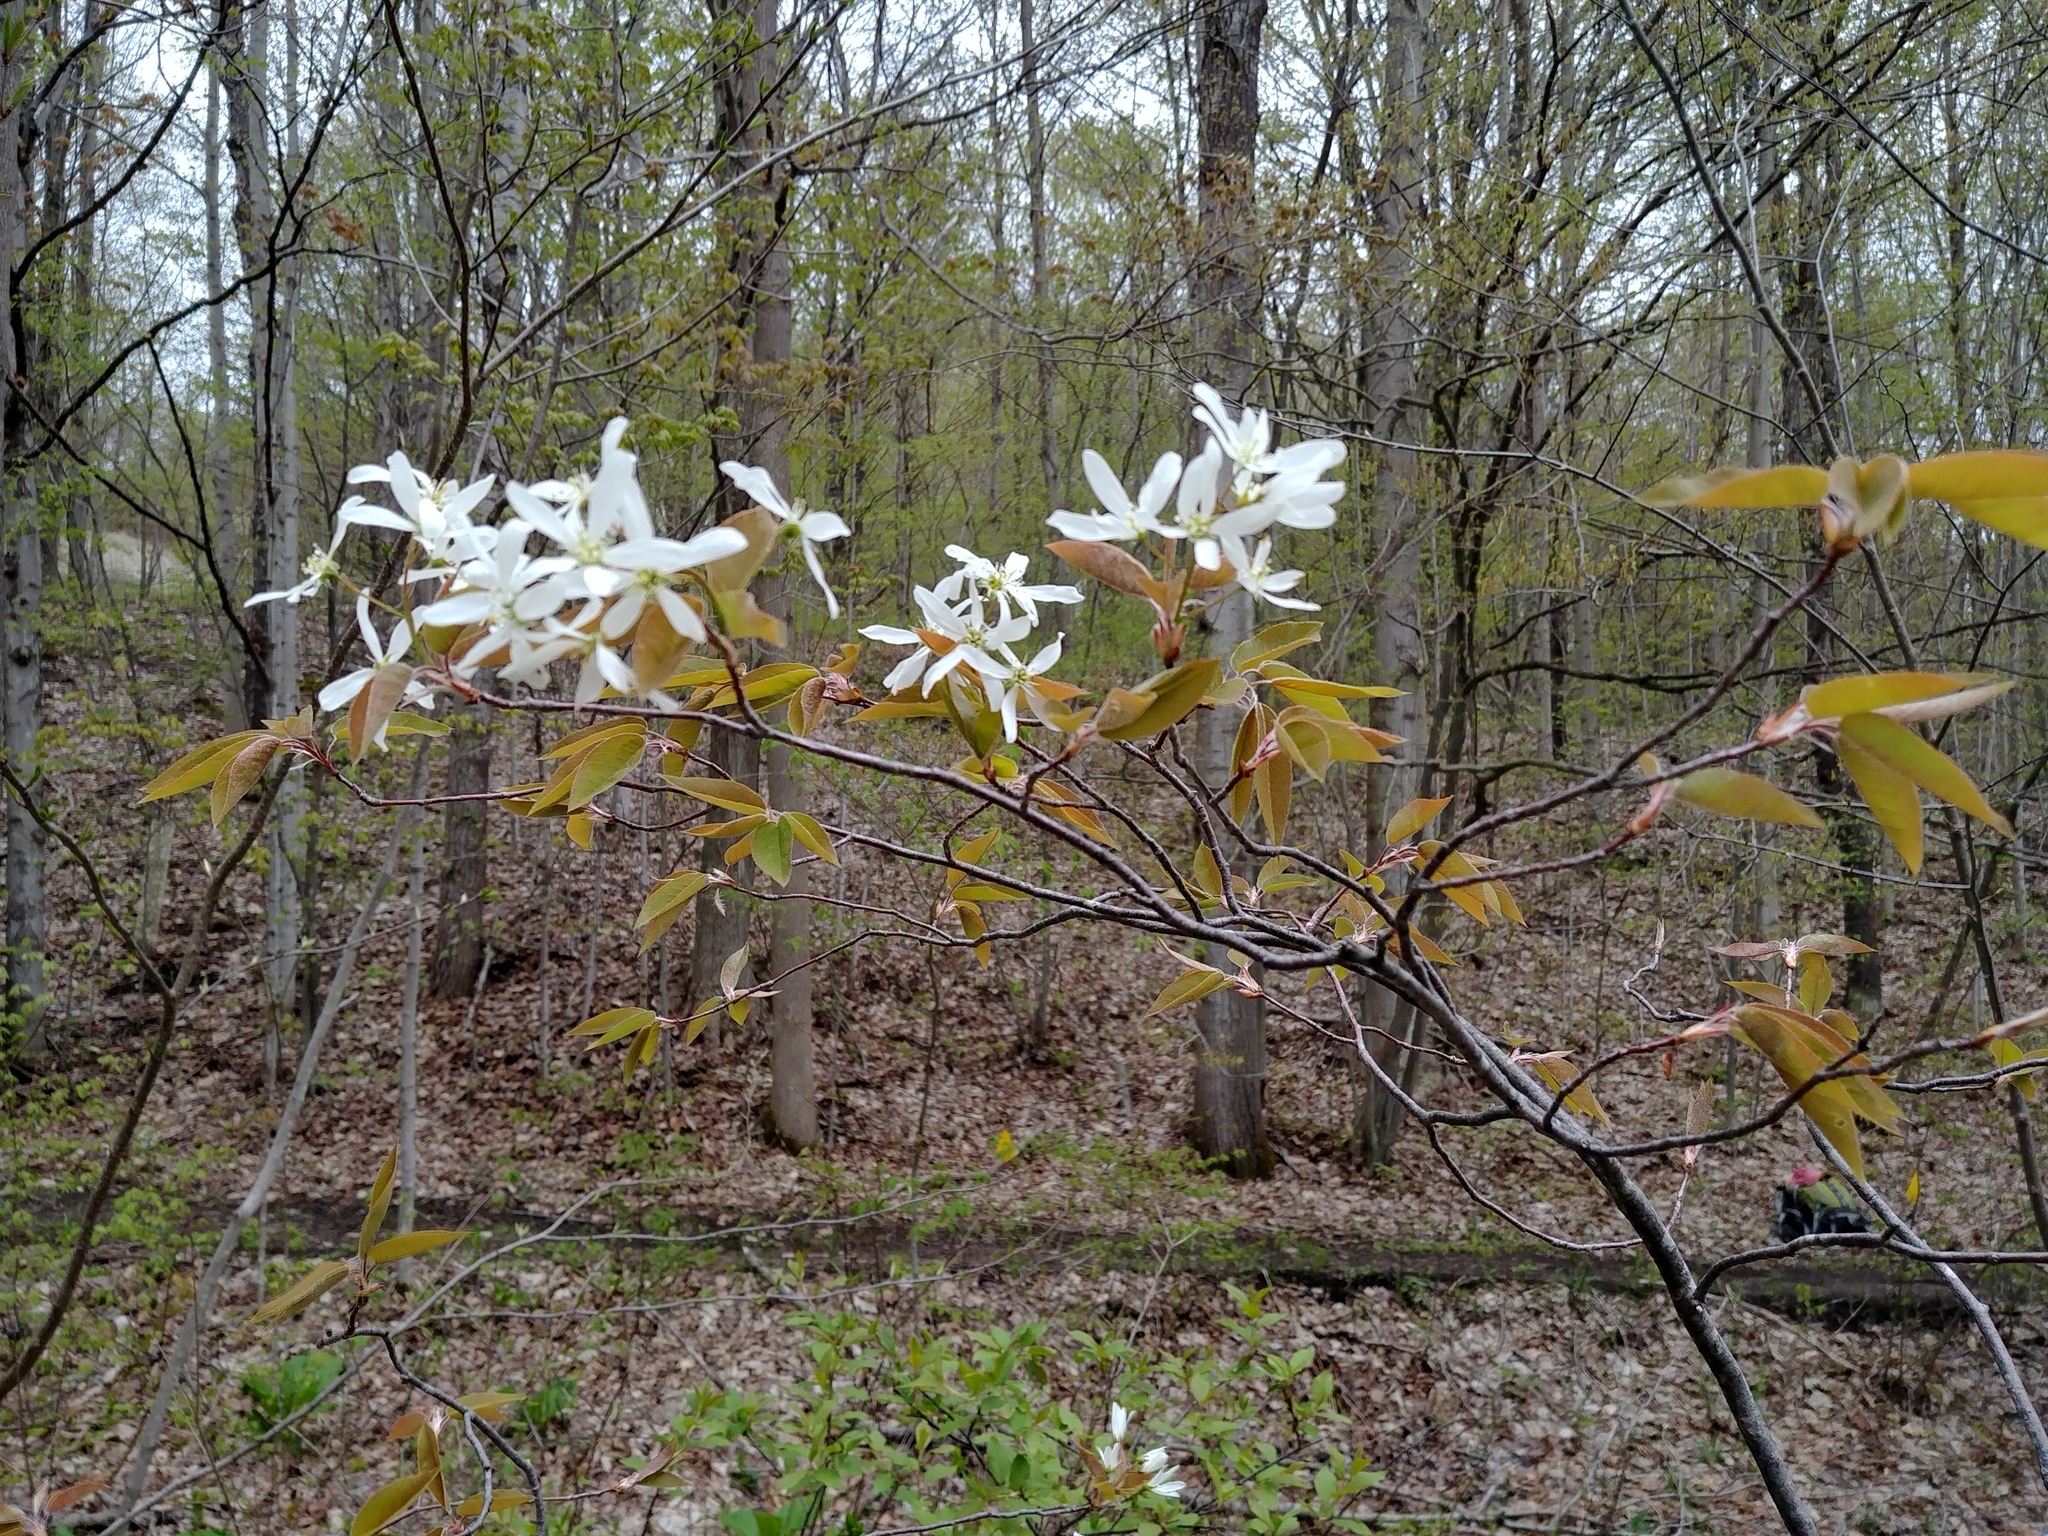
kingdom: Plantae
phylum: Tracheophyta
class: Magnoliopsida
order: Rosales
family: Rosaceae
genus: Amelanchier
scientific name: Amelanchier arborea
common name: Downy serviceberry
